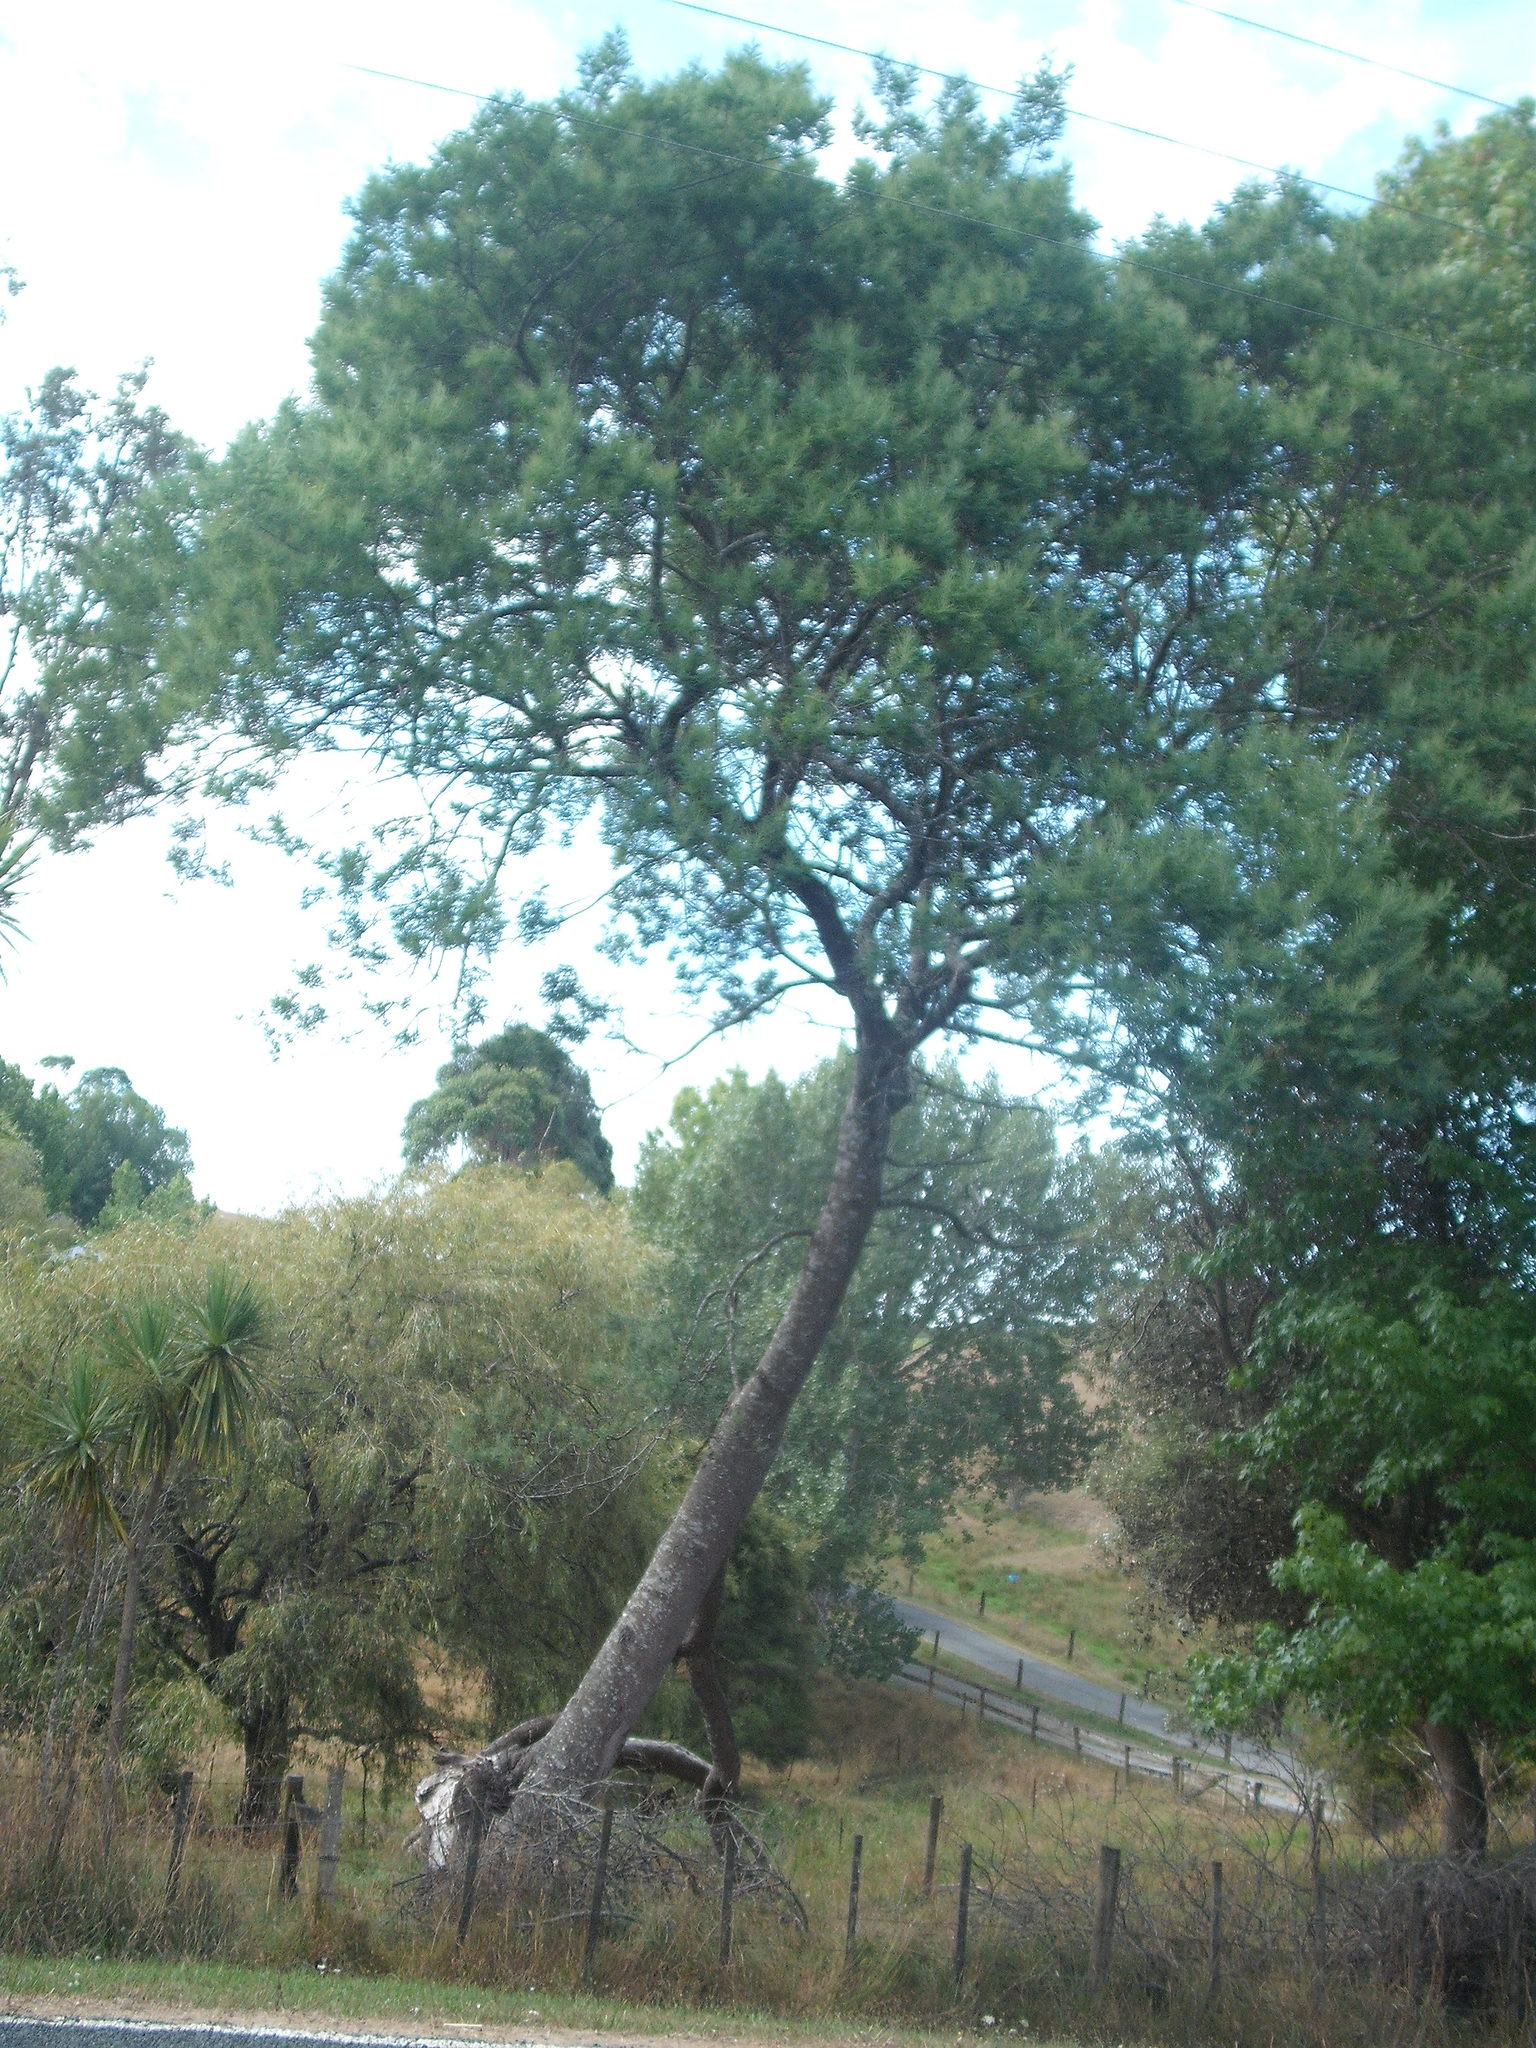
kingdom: Plantae
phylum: Tracheophyta
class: Magnoliopsida
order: Fabales
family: Fabaceae
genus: Acacia
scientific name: Acacia dealbata
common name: Silver wattle
